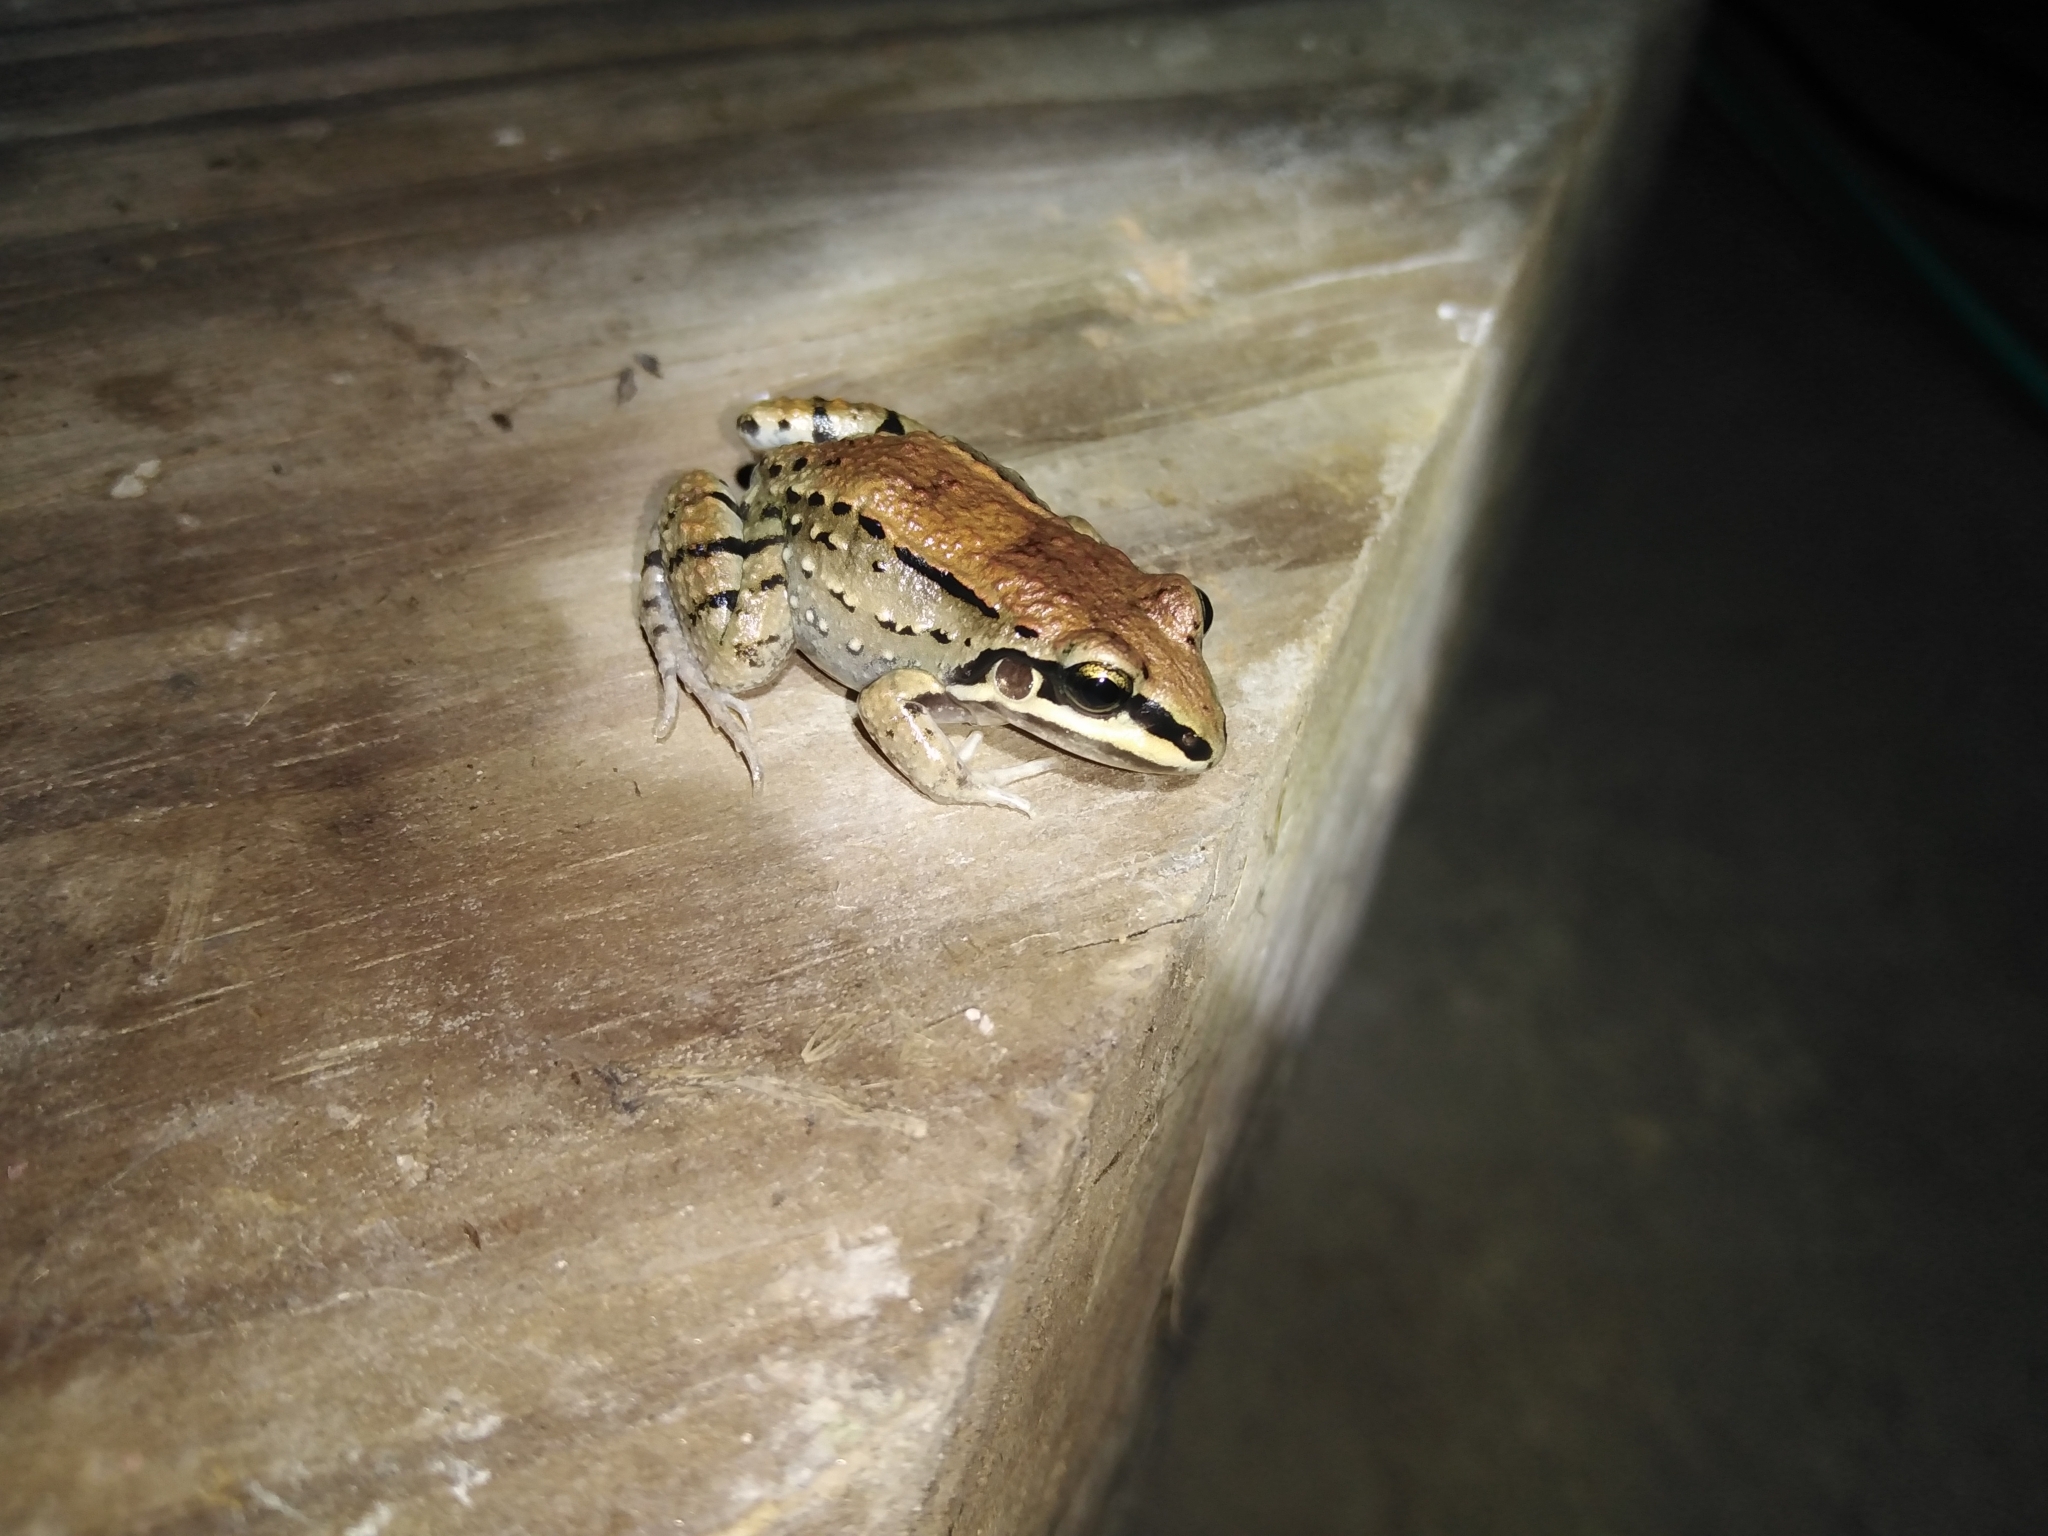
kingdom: Animalia
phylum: Chordata
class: Amphibia
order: Anura
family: Leptodactylidae
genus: Leptodactylus
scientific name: Leptodactylus mystacinus
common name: Moustached frog
